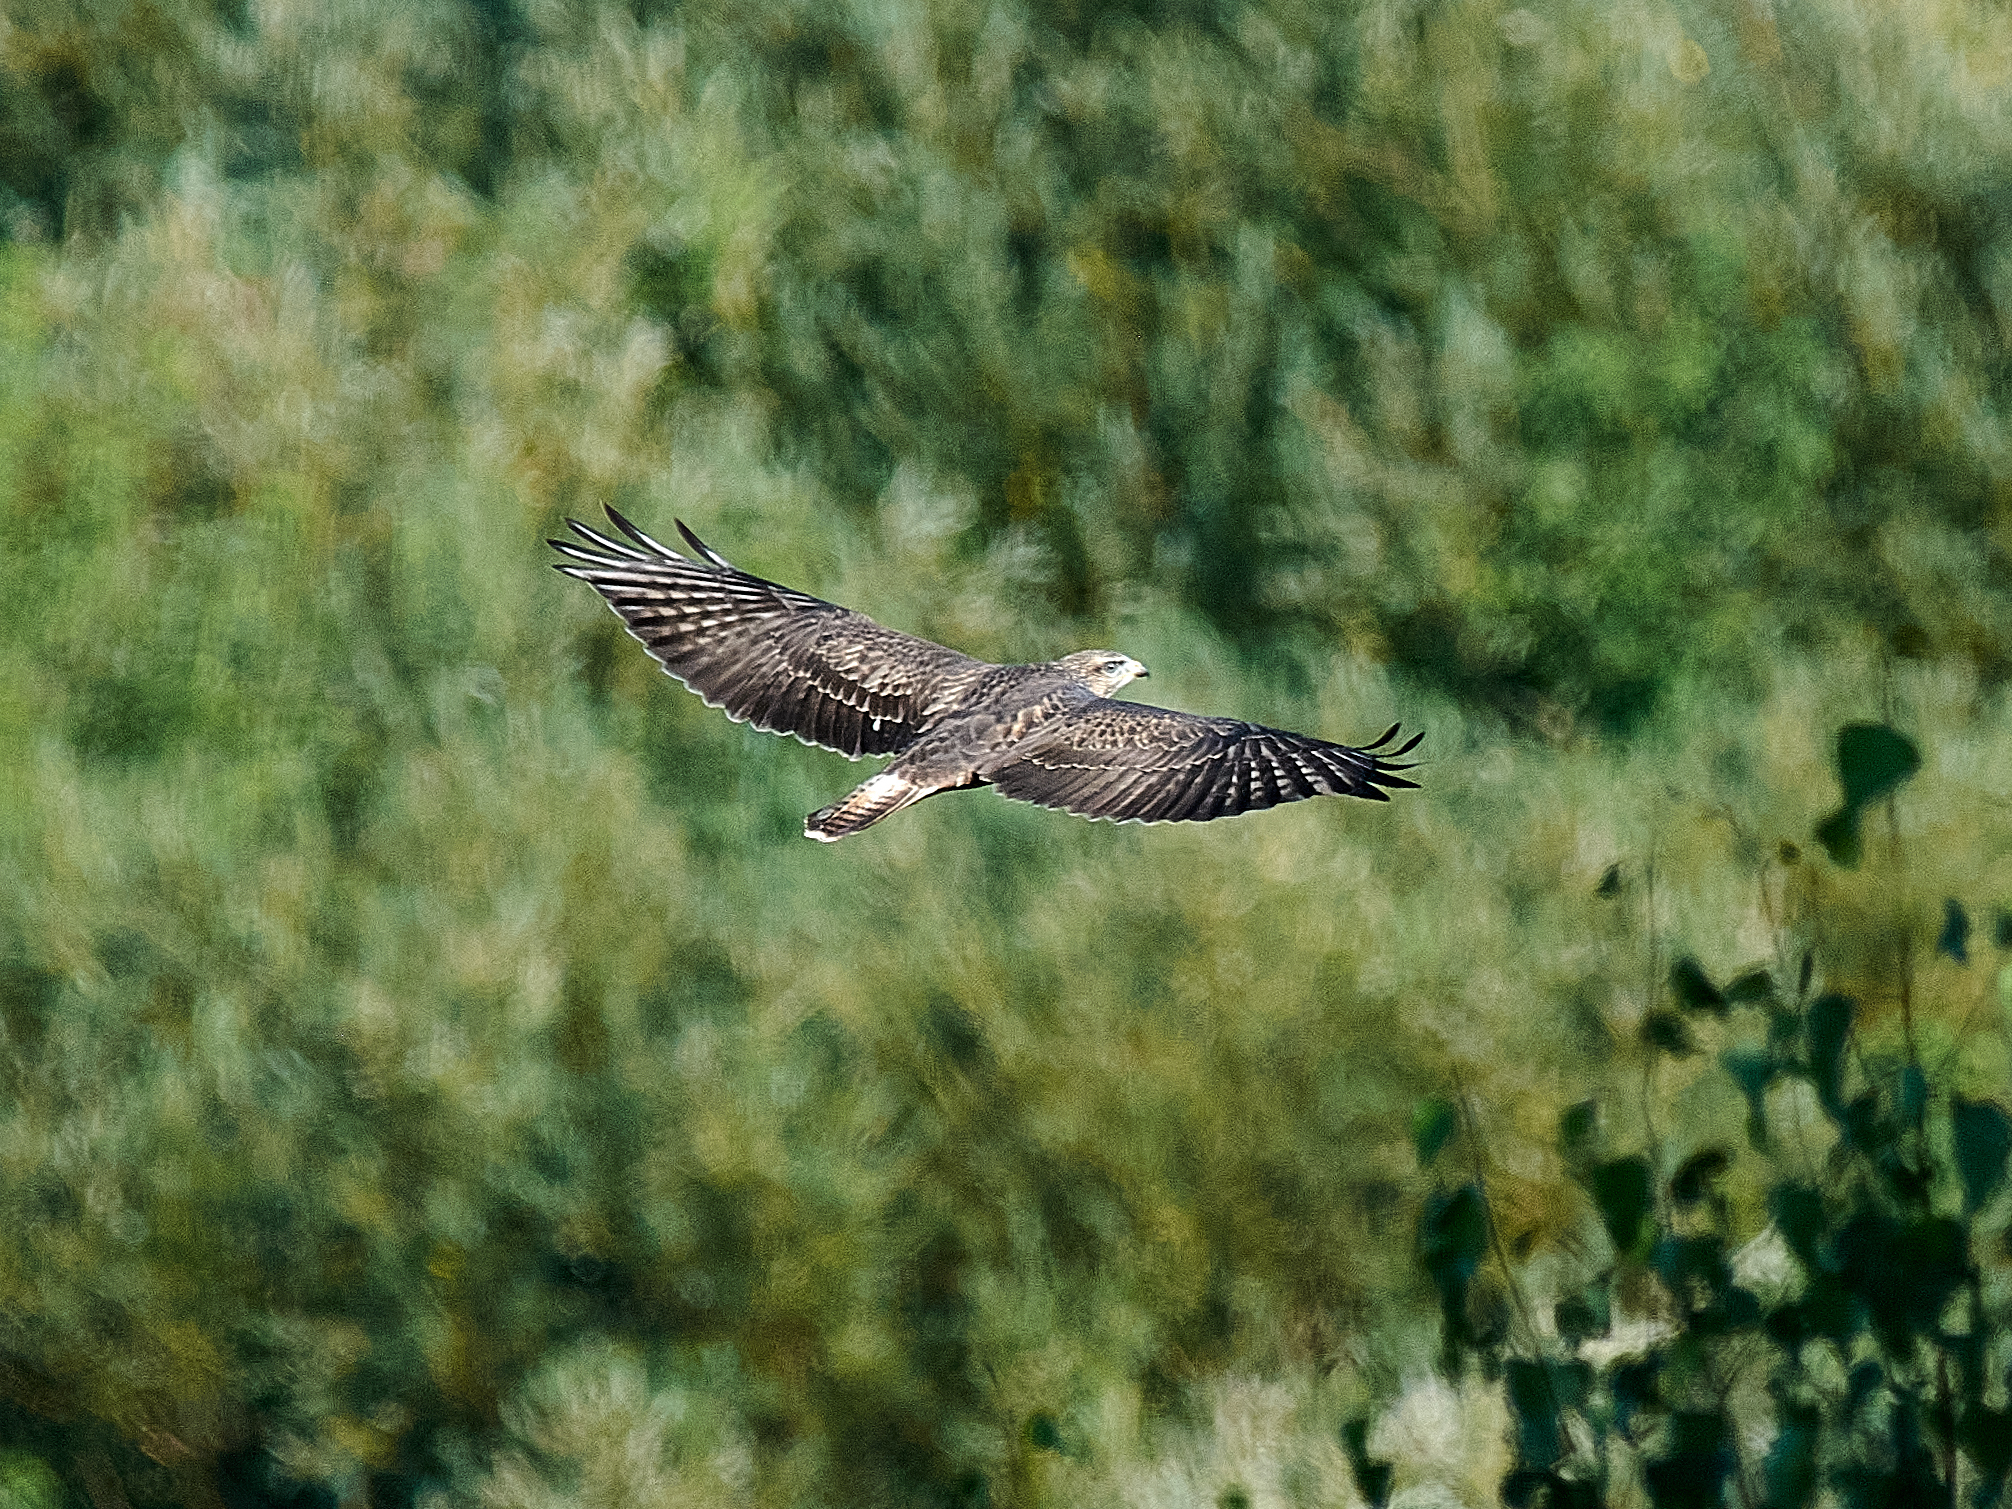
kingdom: Animalia
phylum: Chordata
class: Aves
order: Accipitriformes
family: Accipitridae
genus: Buteo
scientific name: Buteo buteo
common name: Common buzzard
